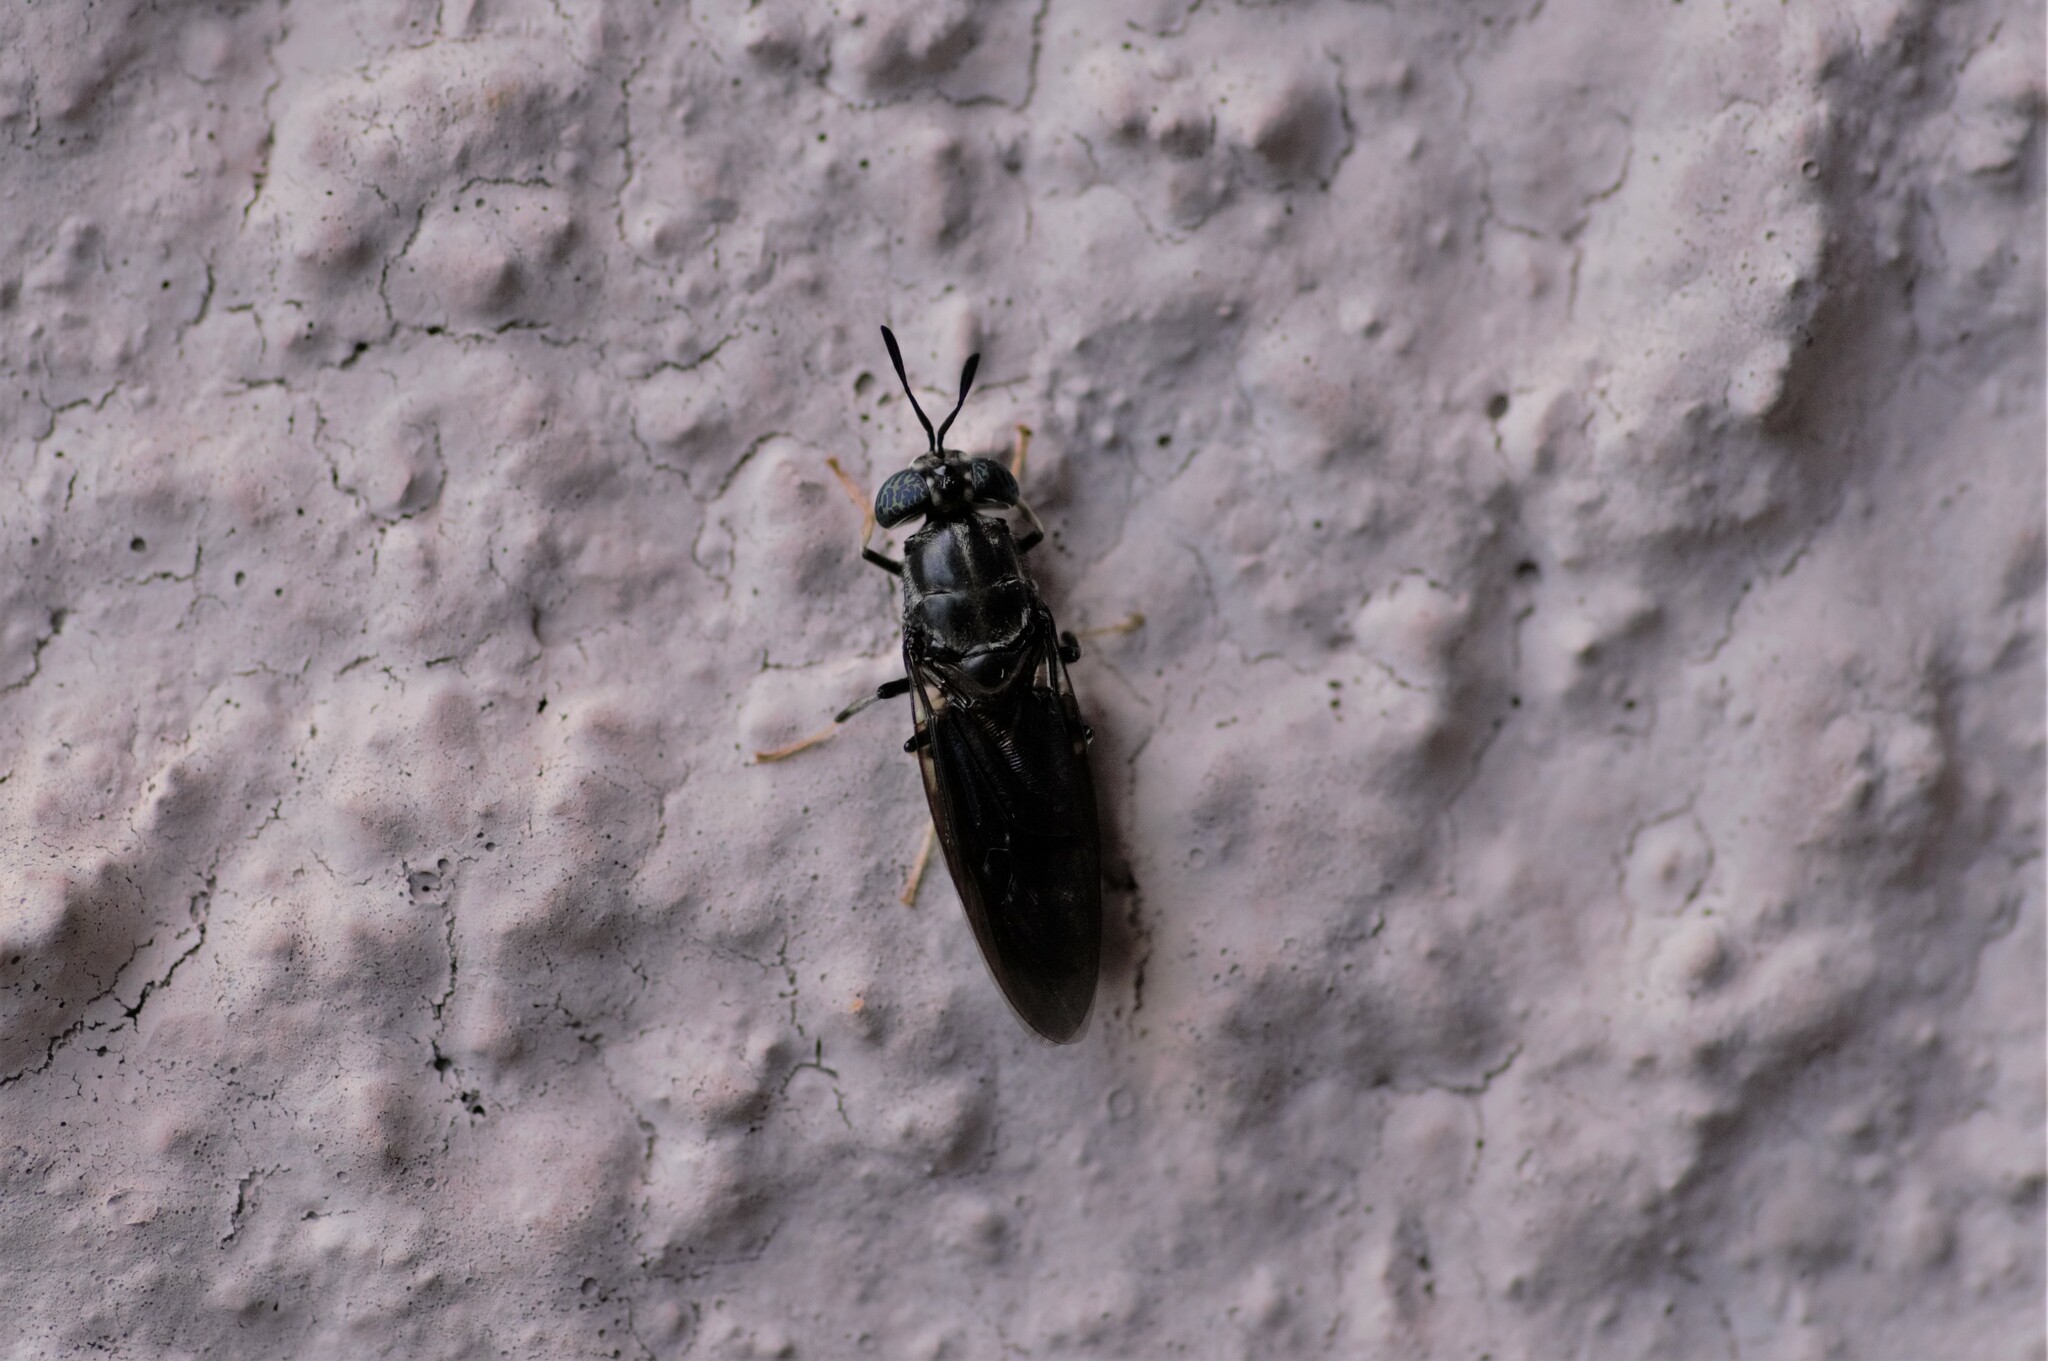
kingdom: Animalia
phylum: Arthropoda
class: Insecta
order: Diptera
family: Stratiomyidae
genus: Hermetia
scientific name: Hermetia illucens
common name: Black soldier fly
